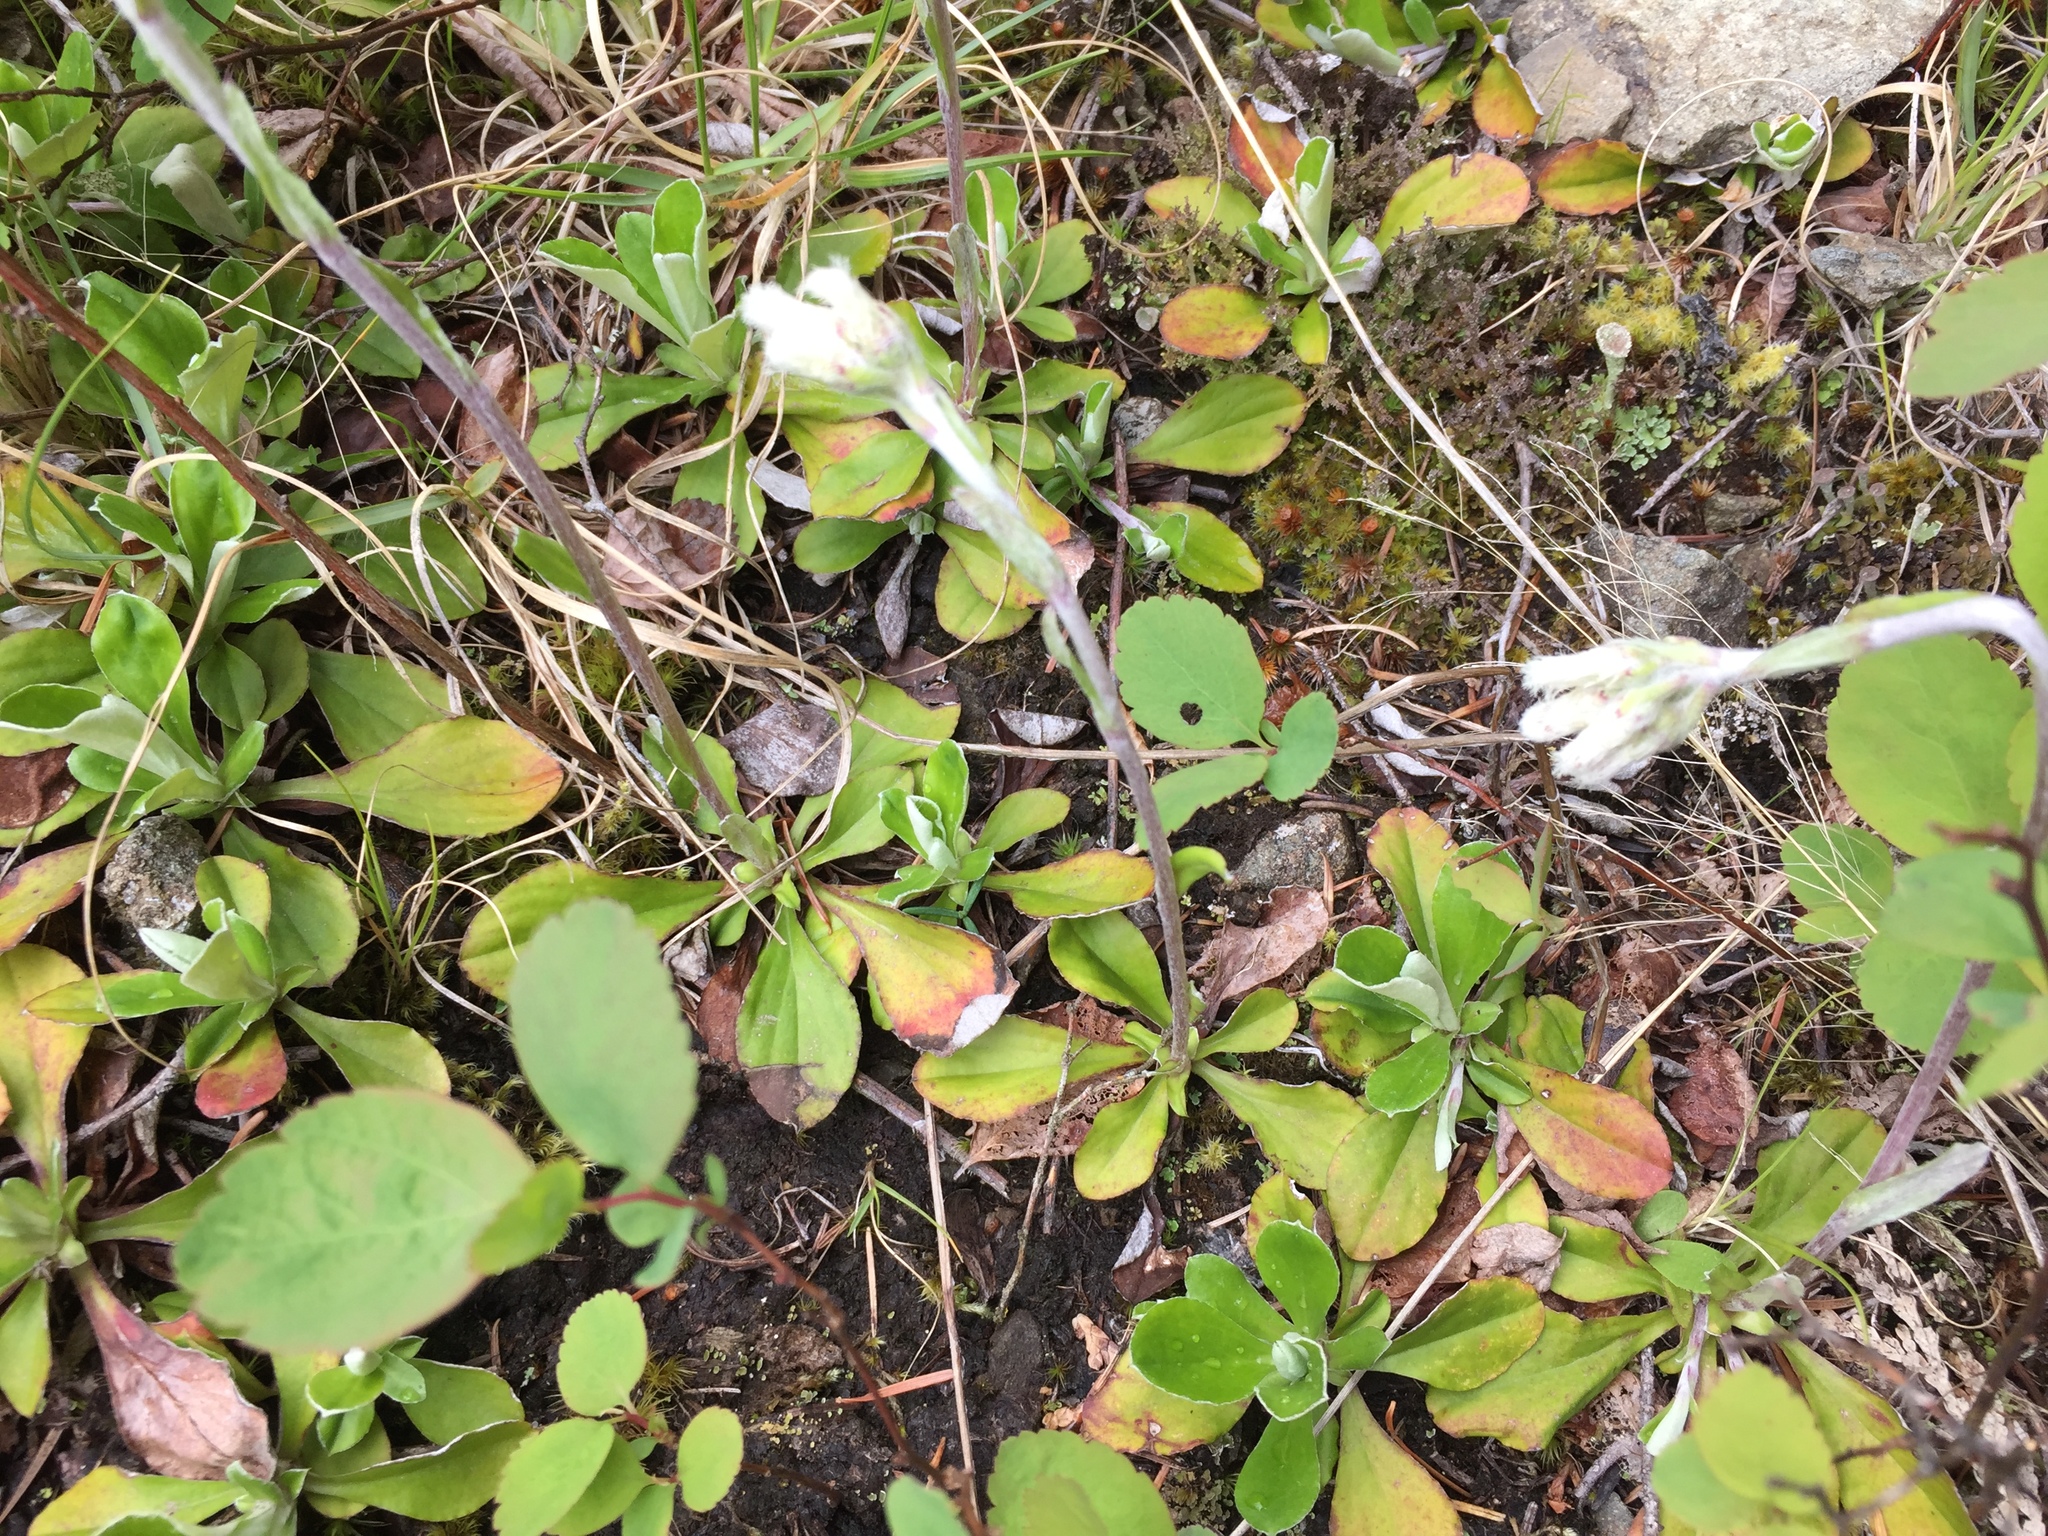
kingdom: Plantae
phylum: Tracheophyta
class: Magnoliopsida
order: Asterales
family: Asteraceae
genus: Antennaria
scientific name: Antennaria howellii
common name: Howell's pussytoes
